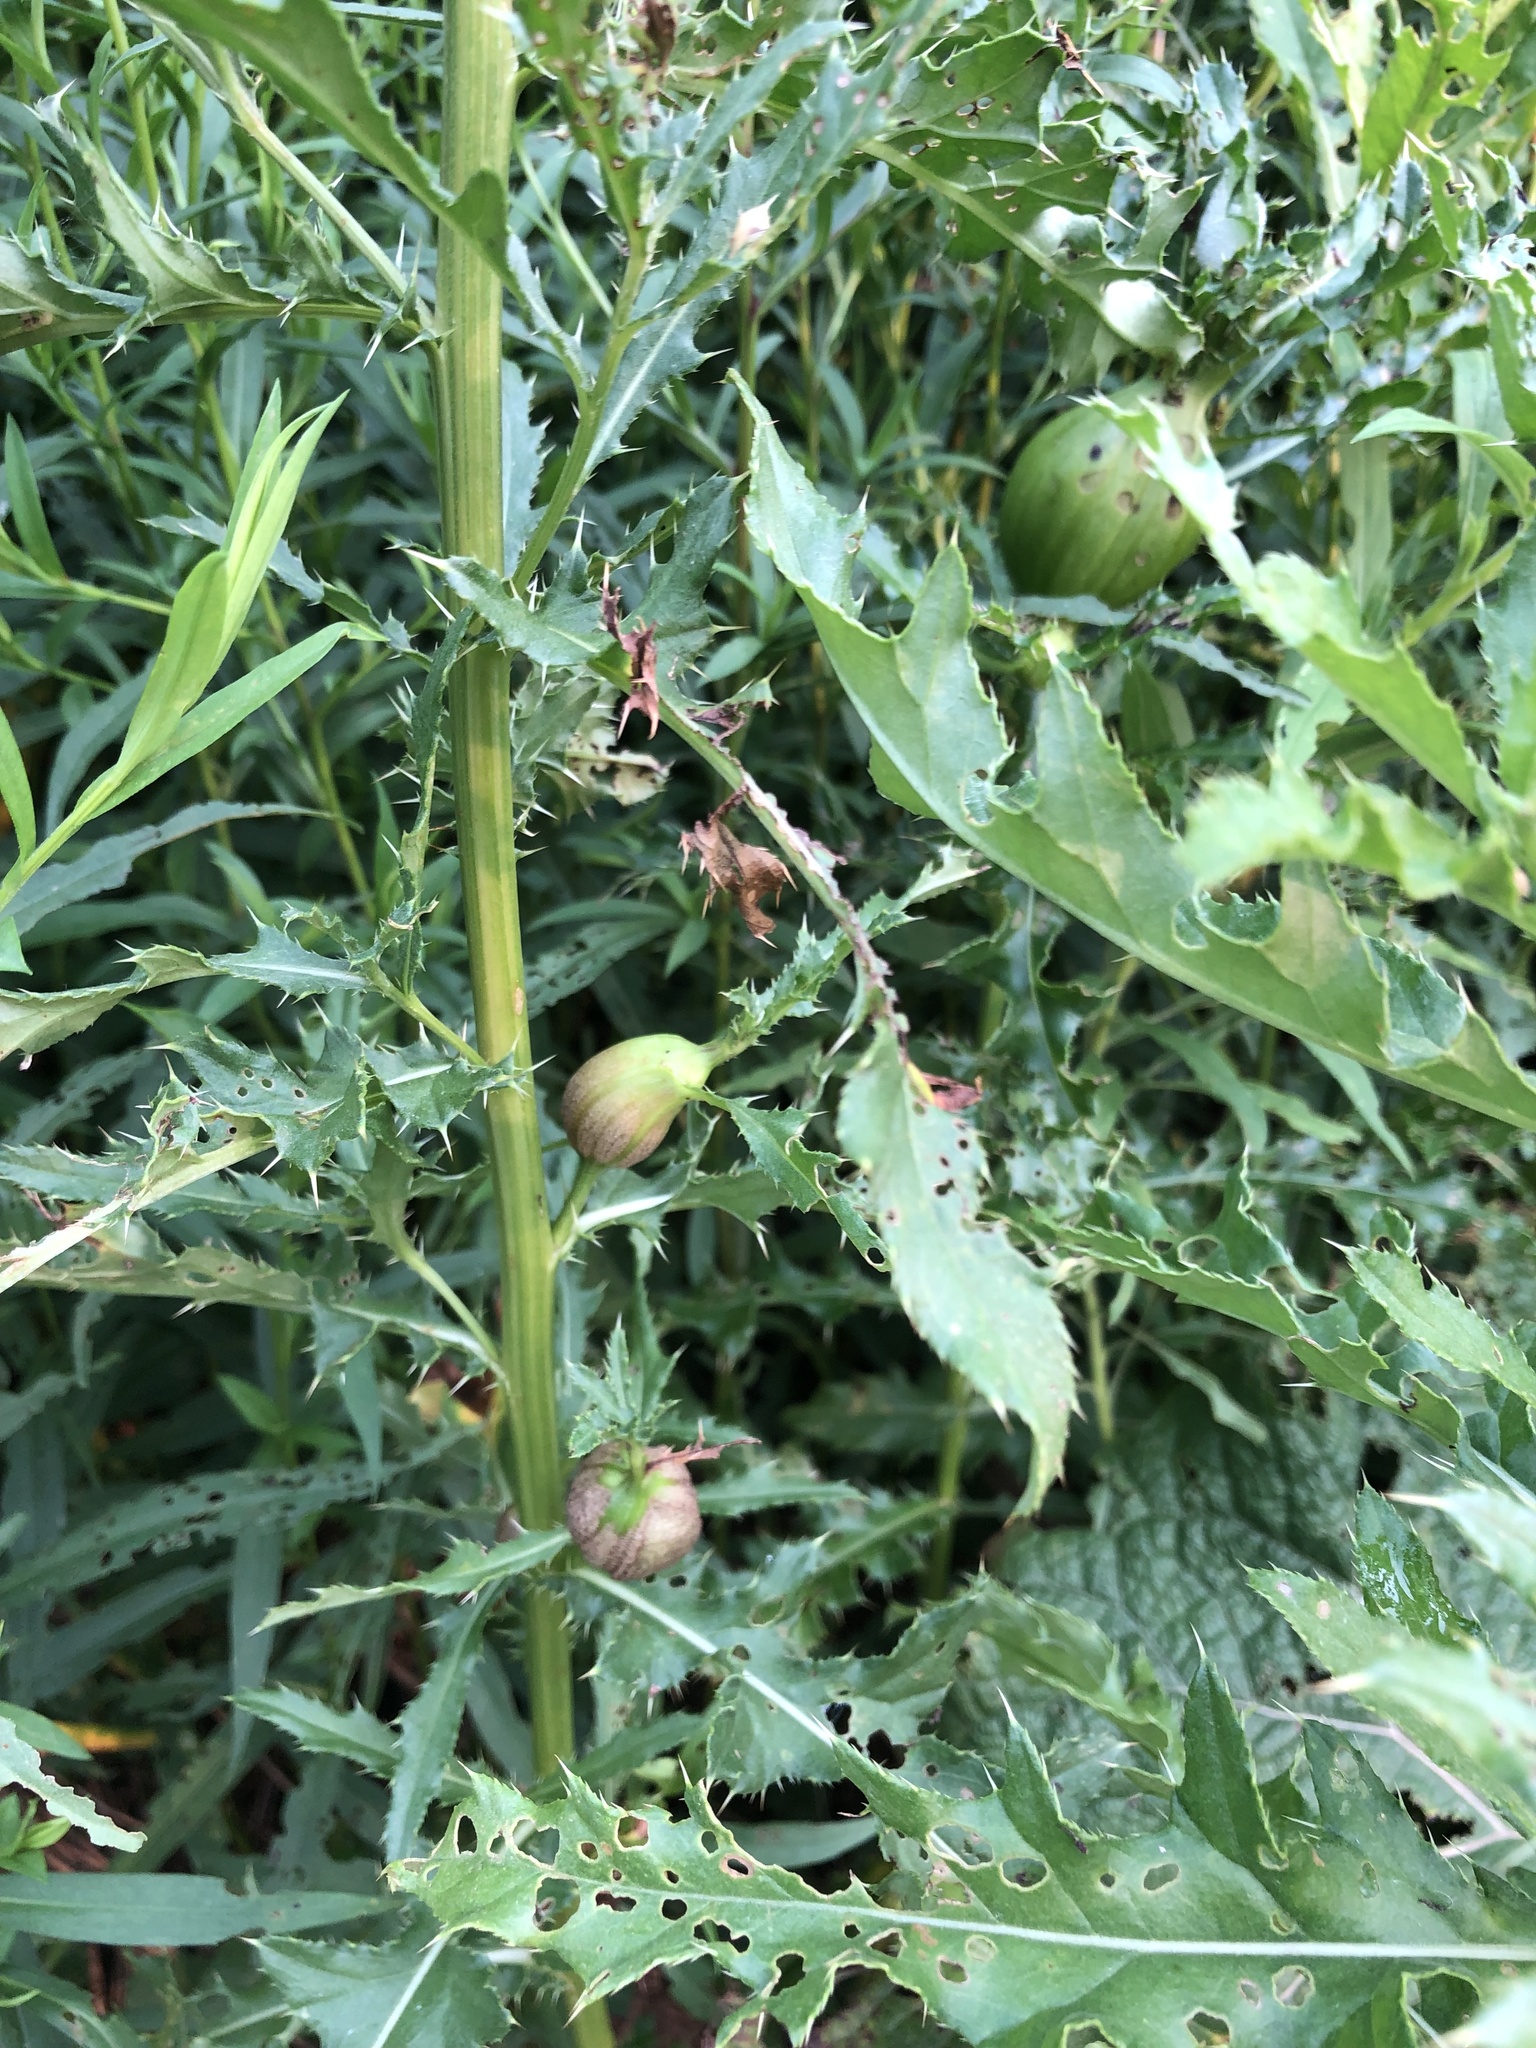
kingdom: Animalia
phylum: Arthropoda
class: Insecta
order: Diptera
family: Tephritidae
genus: Urophora
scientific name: Urophora cardui
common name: Fruit fly
